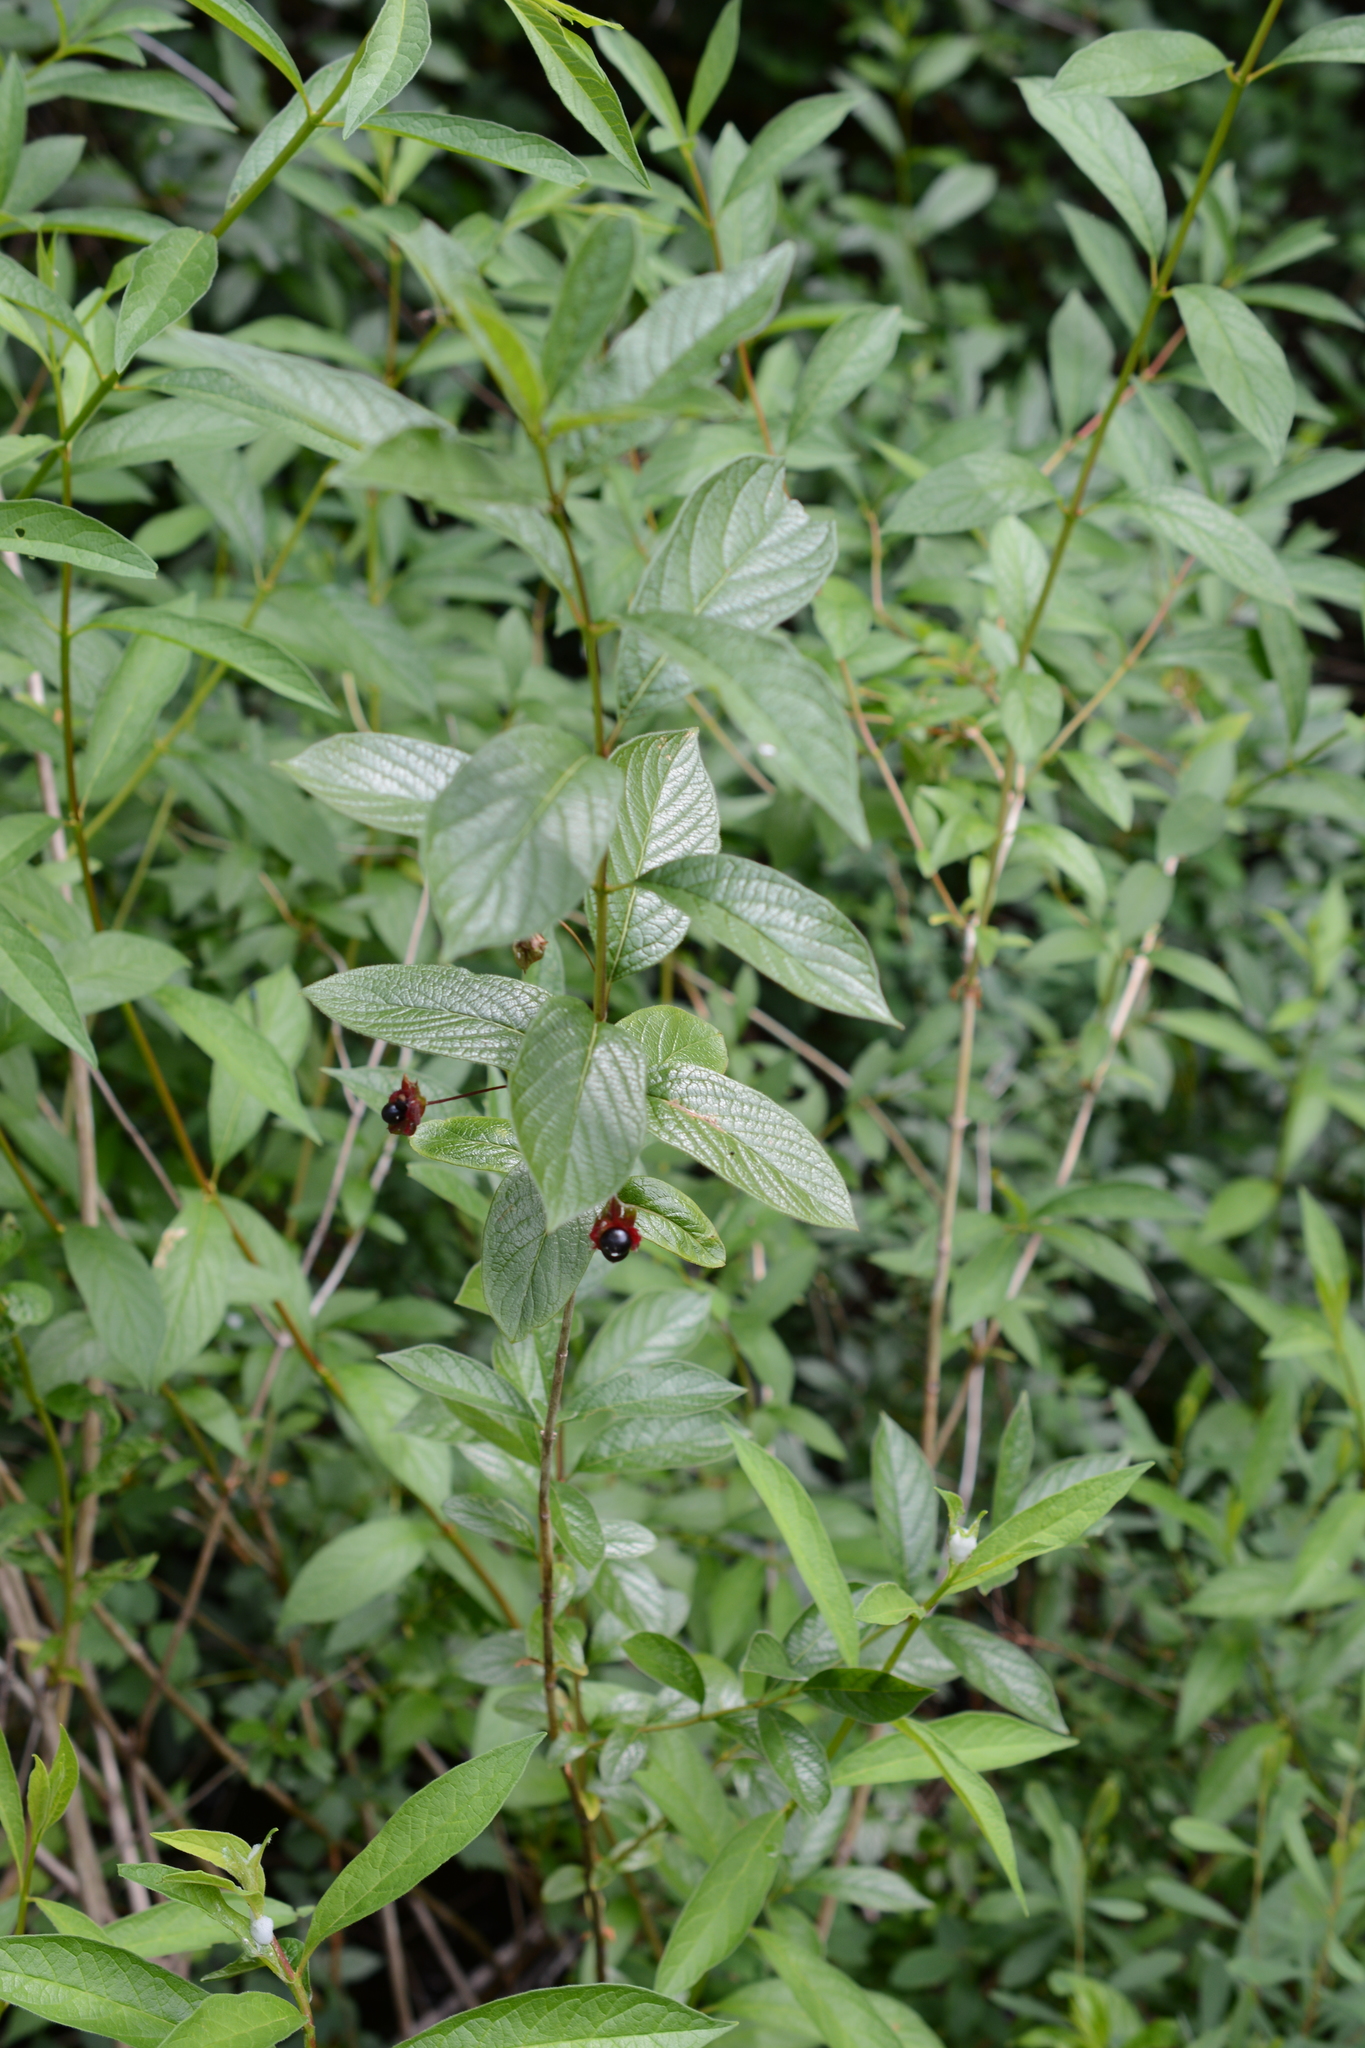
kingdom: Plantae
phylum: Tracheophyta
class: Magnoliopsida
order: Dipsacales
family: Caprifoliaceae
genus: Lonicera
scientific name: Lonicera involucrata
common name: Californian honeysuckle
